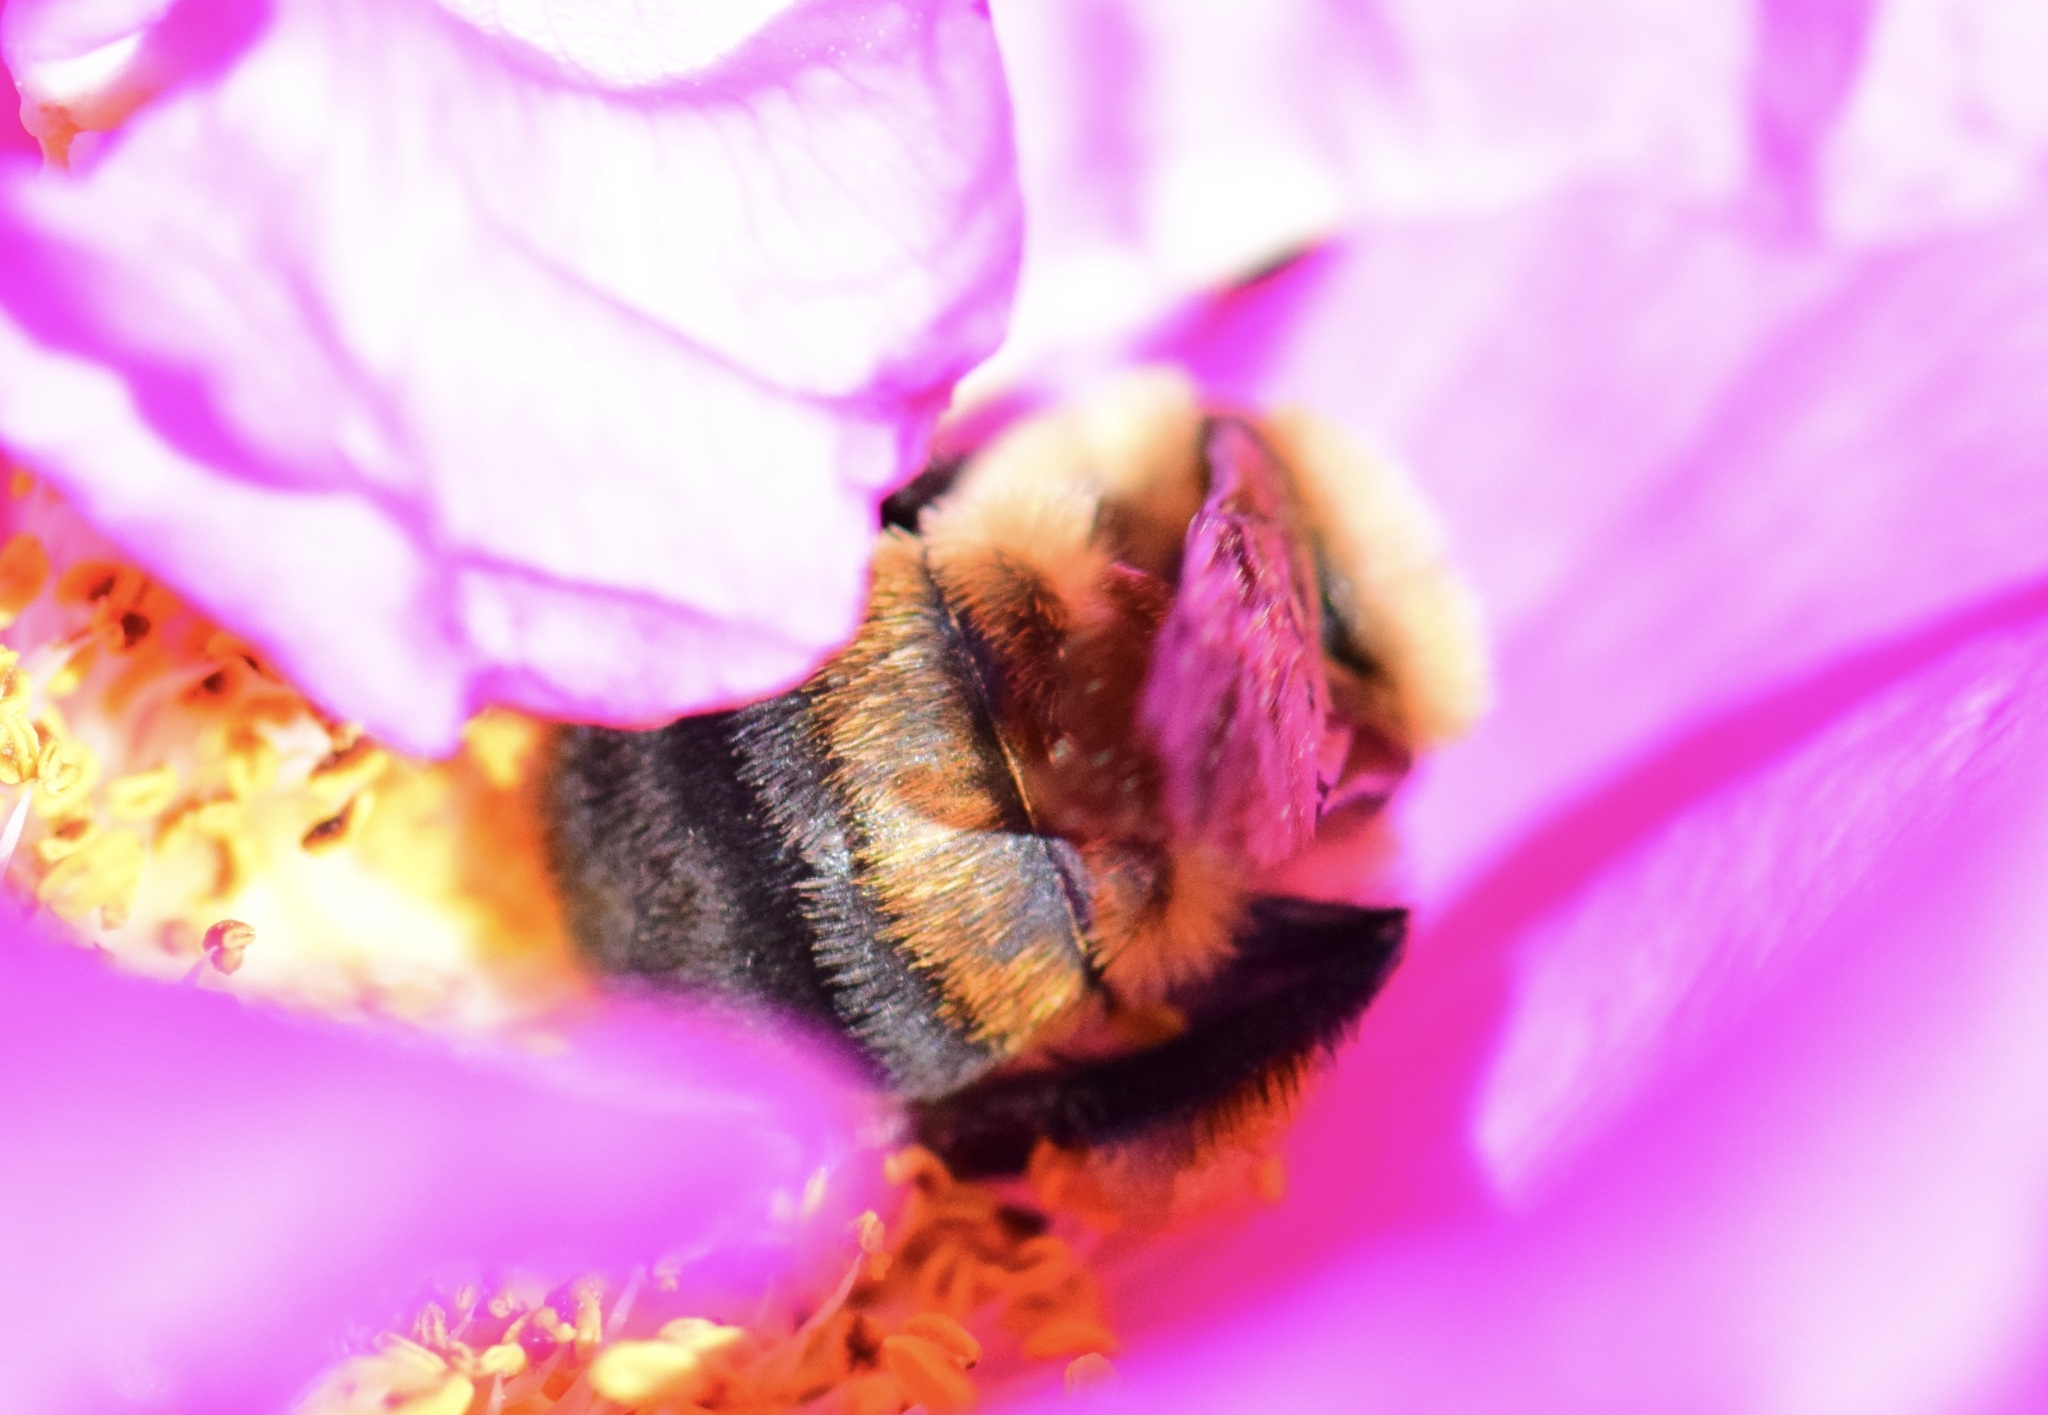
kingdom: Animalia
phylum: Arthropoda
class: Insecta
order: Hymenoptera
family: Apidae
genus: Bombus
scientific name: Bombus griseocollis
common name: Brown-belted bumble bee
